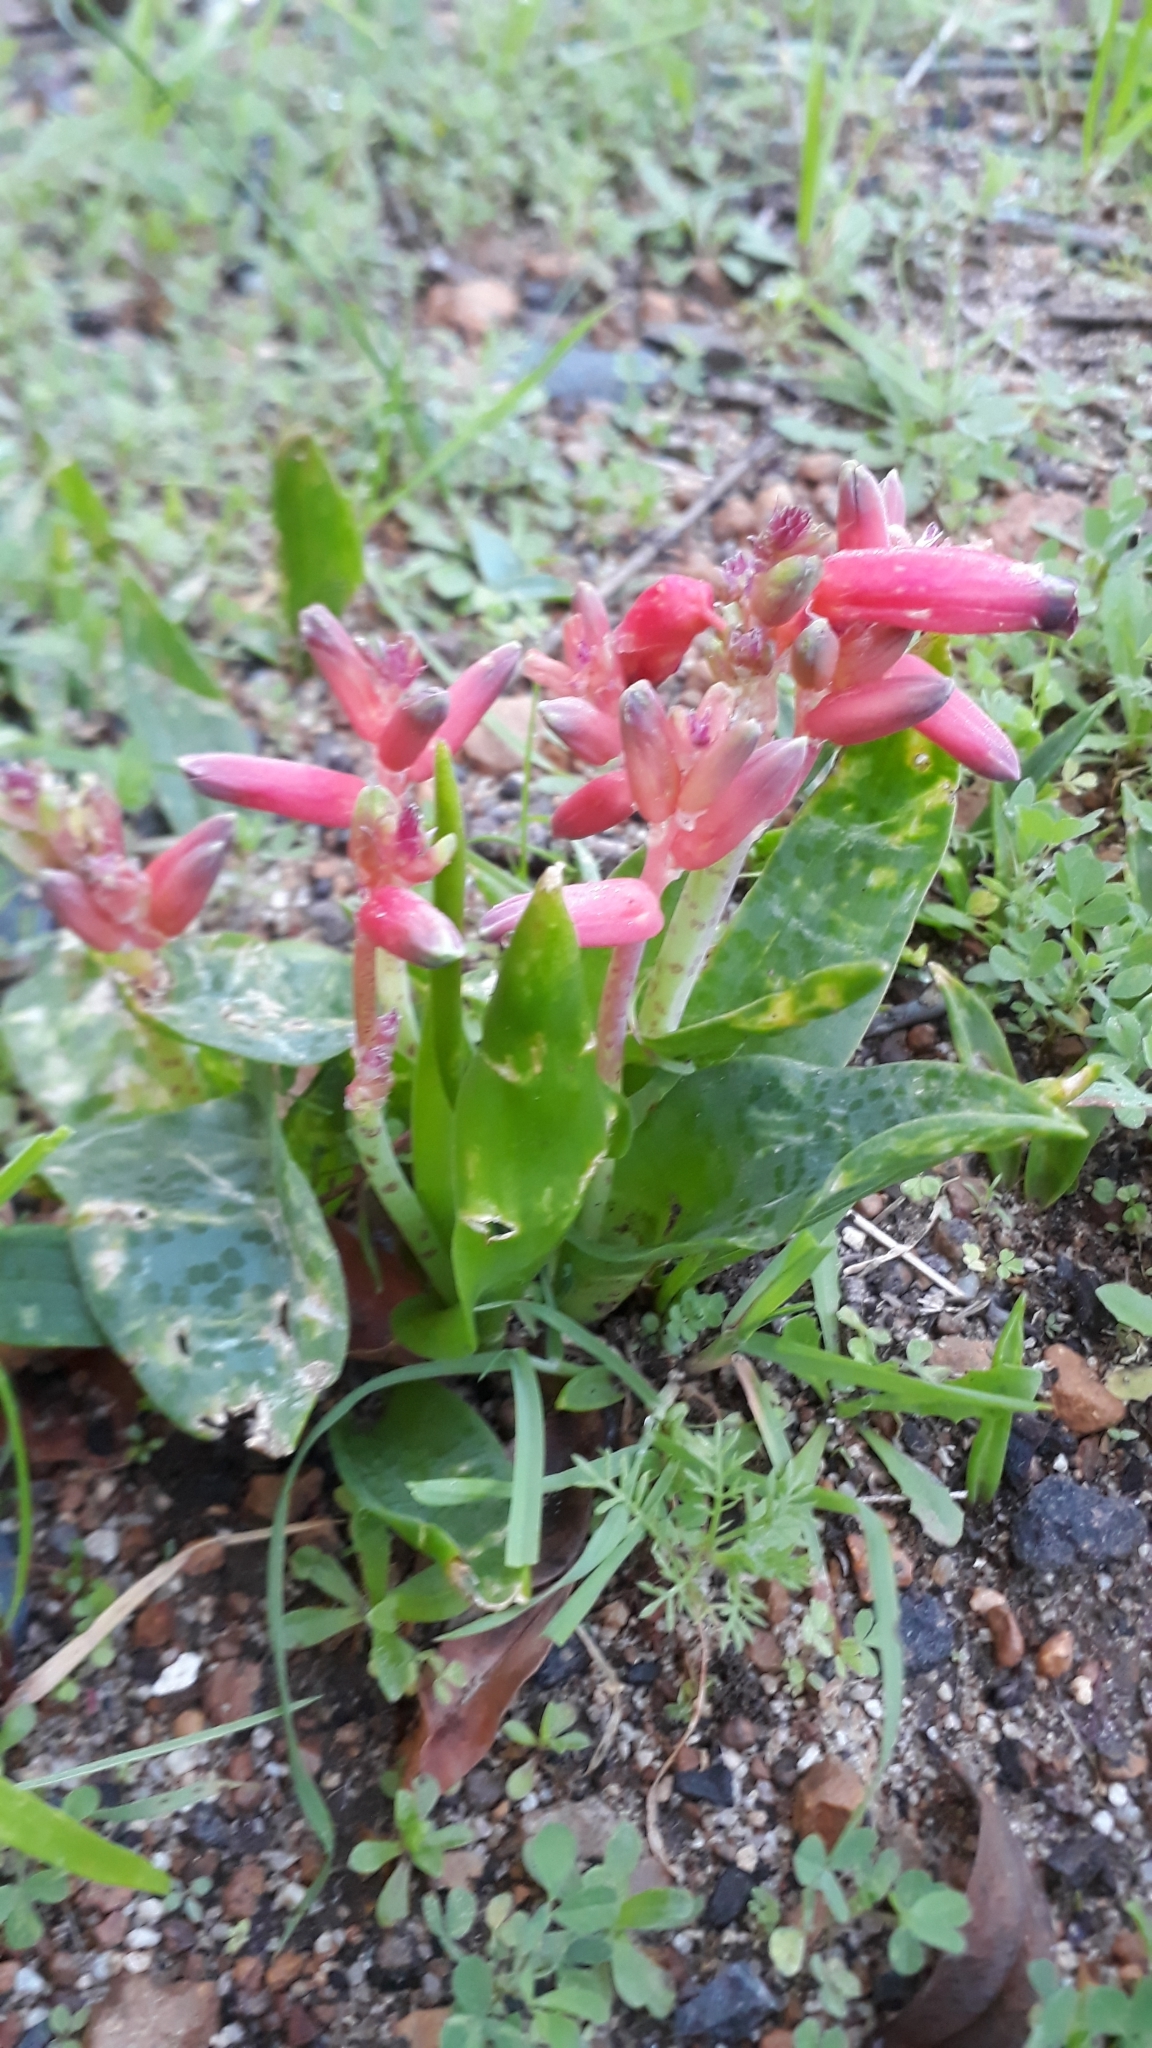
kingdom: Plantae
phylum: Tracheophyta
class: Liliopsida
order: Asparagales
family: Asparagaceae
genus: Lachenalia
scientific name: Lachenalia bulbifera
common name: Red lachenalia
